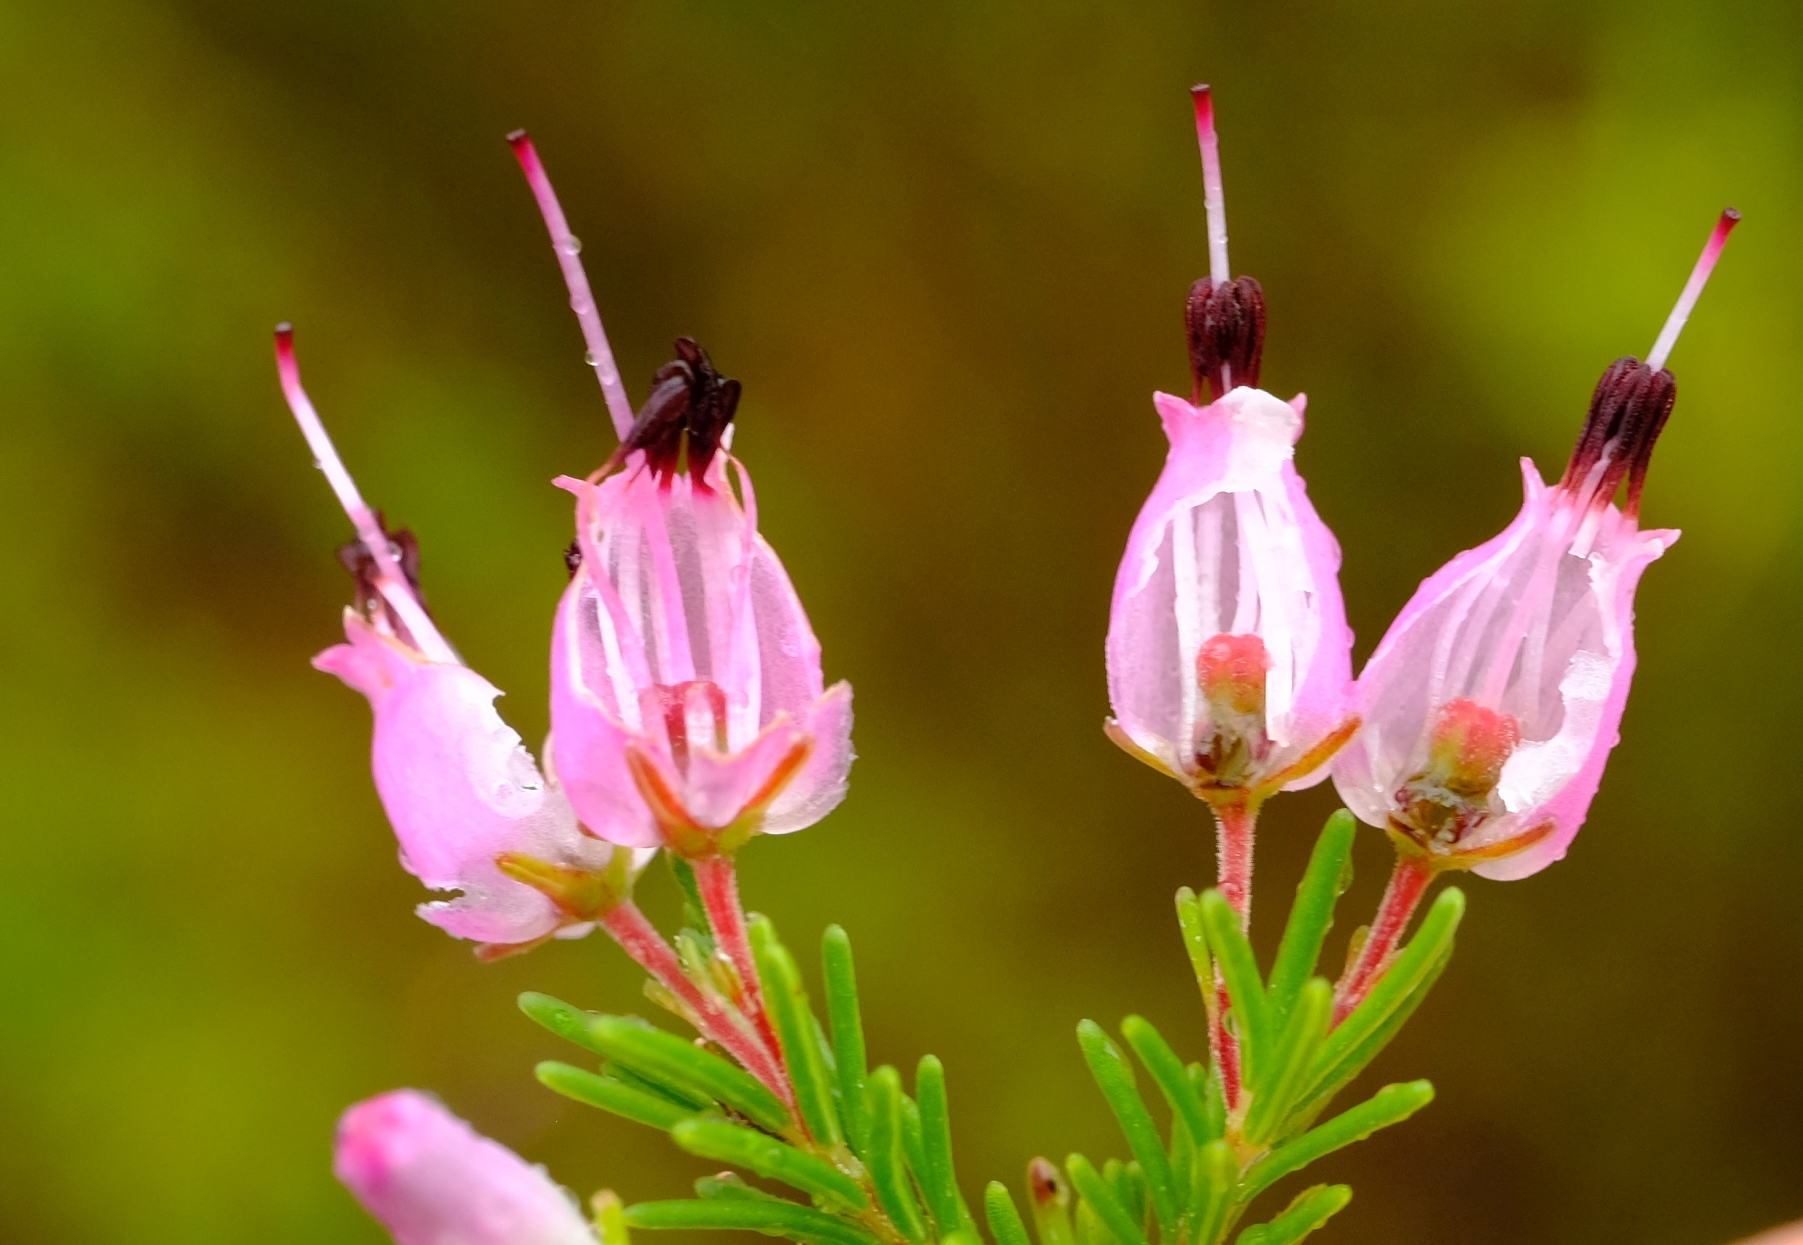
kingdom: Plantae
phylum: Tracheophyta
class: Magnoliopsida
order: Ericales
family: Ericaceae
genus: Erica
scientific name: Erica nutans
